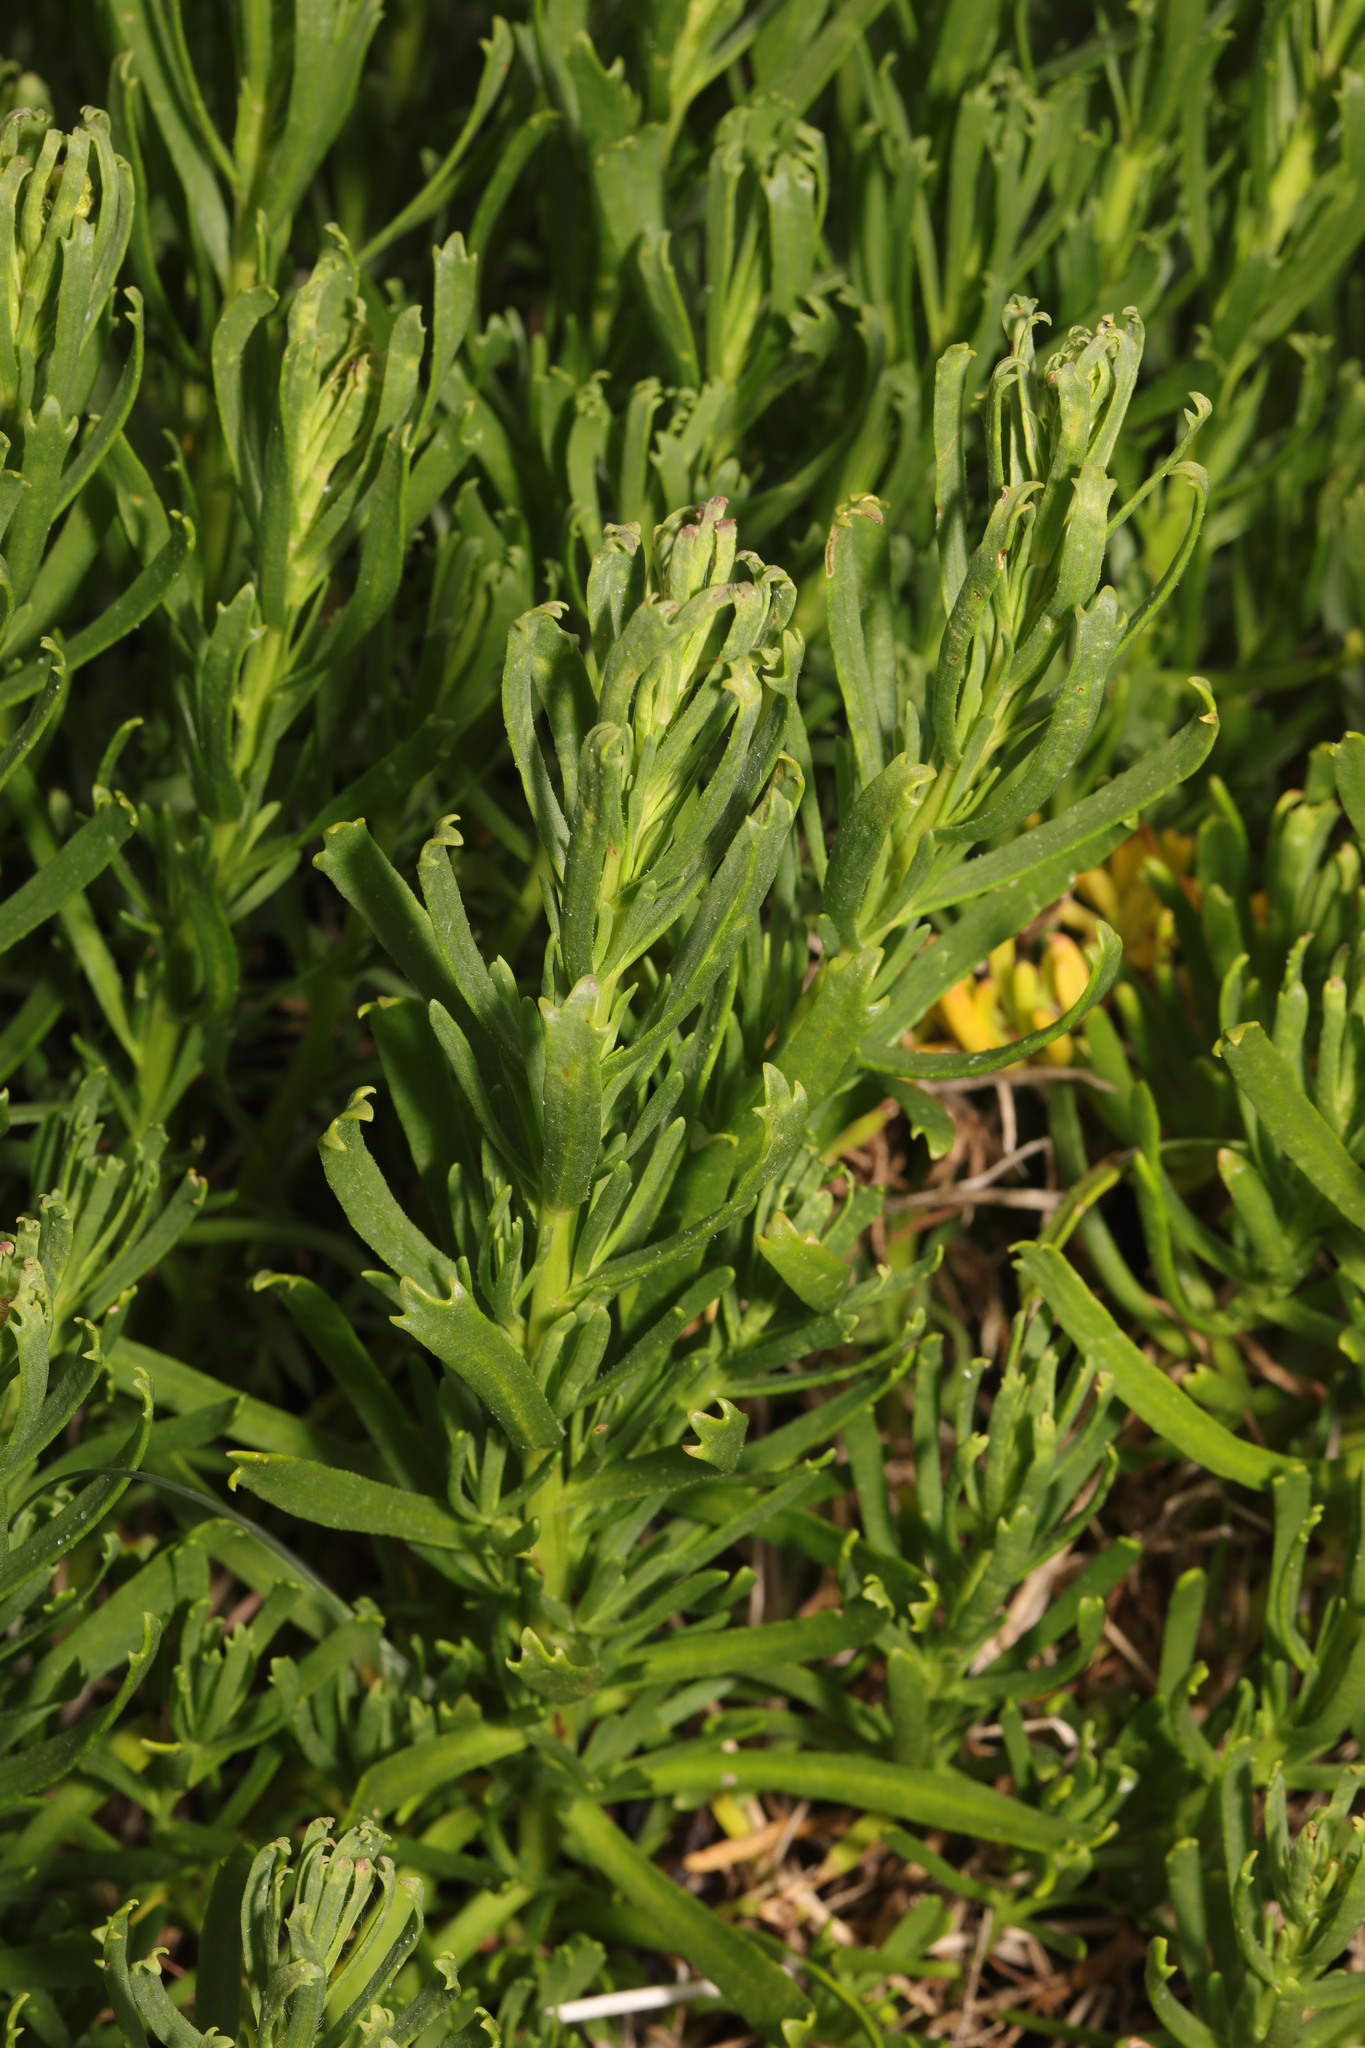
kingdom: Plantae
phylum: Tracheophyta
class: Magnoliopsida
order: Asterales
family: Asteraceae
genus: Limbarda
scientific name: Limbarda crithmoides
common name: Golden samphire
